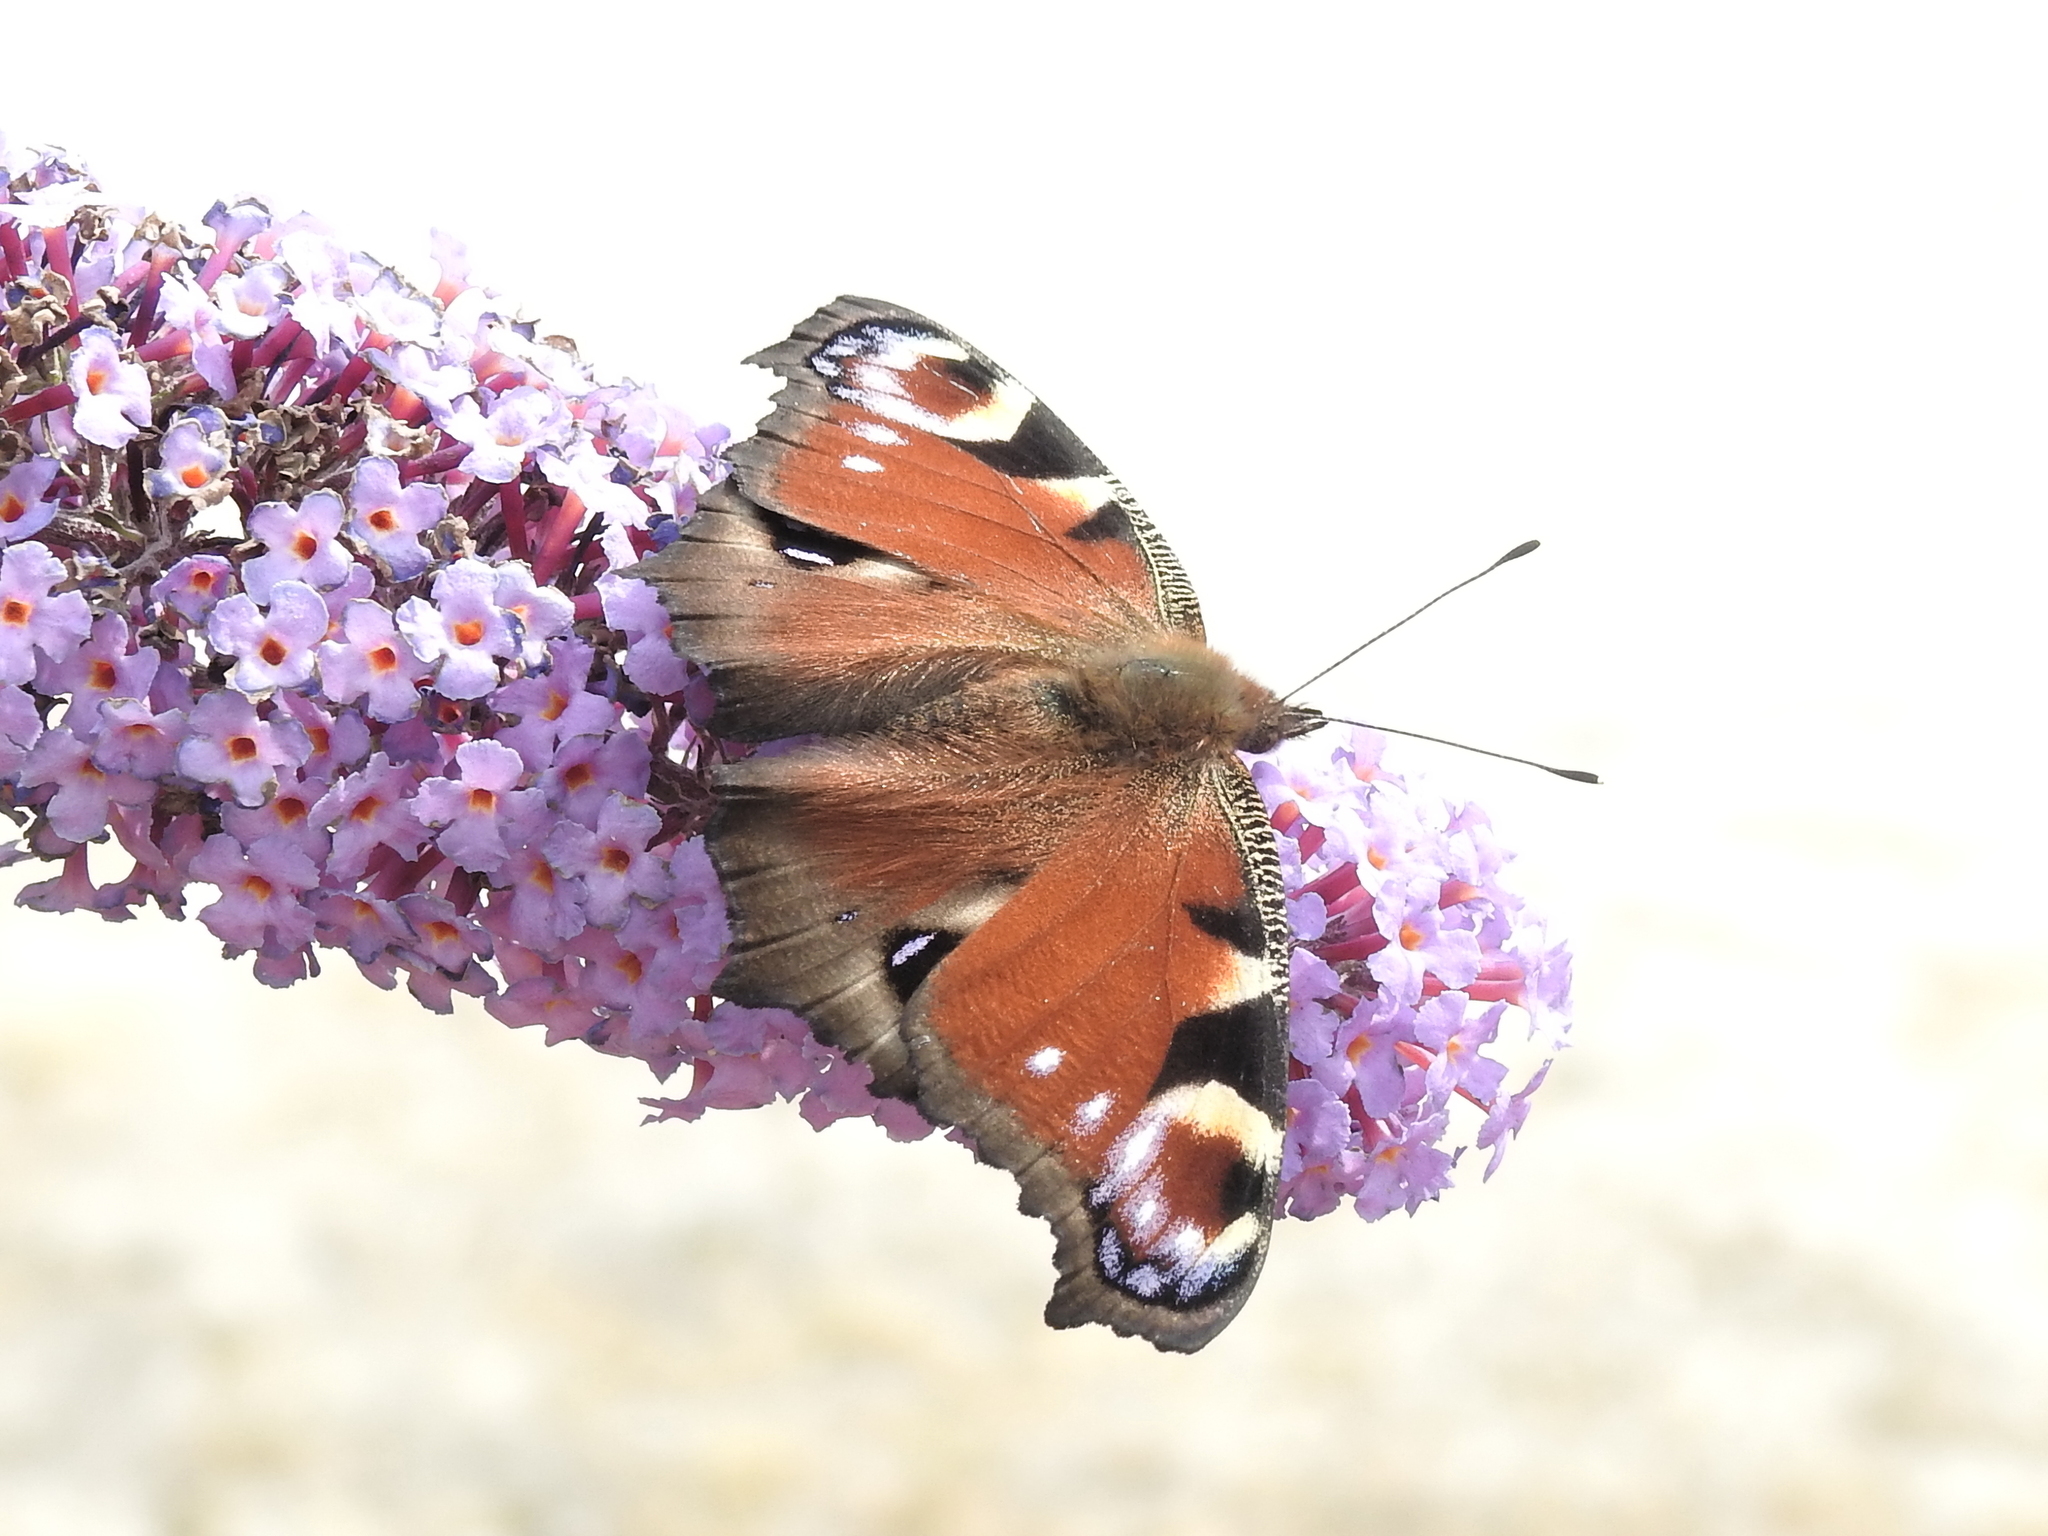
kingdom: Animalia
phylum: Arthropoda
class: Insecta
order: Lepidoptera
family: Nymphalidae
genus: Aglais
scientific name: Aglais io
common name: Peacock
